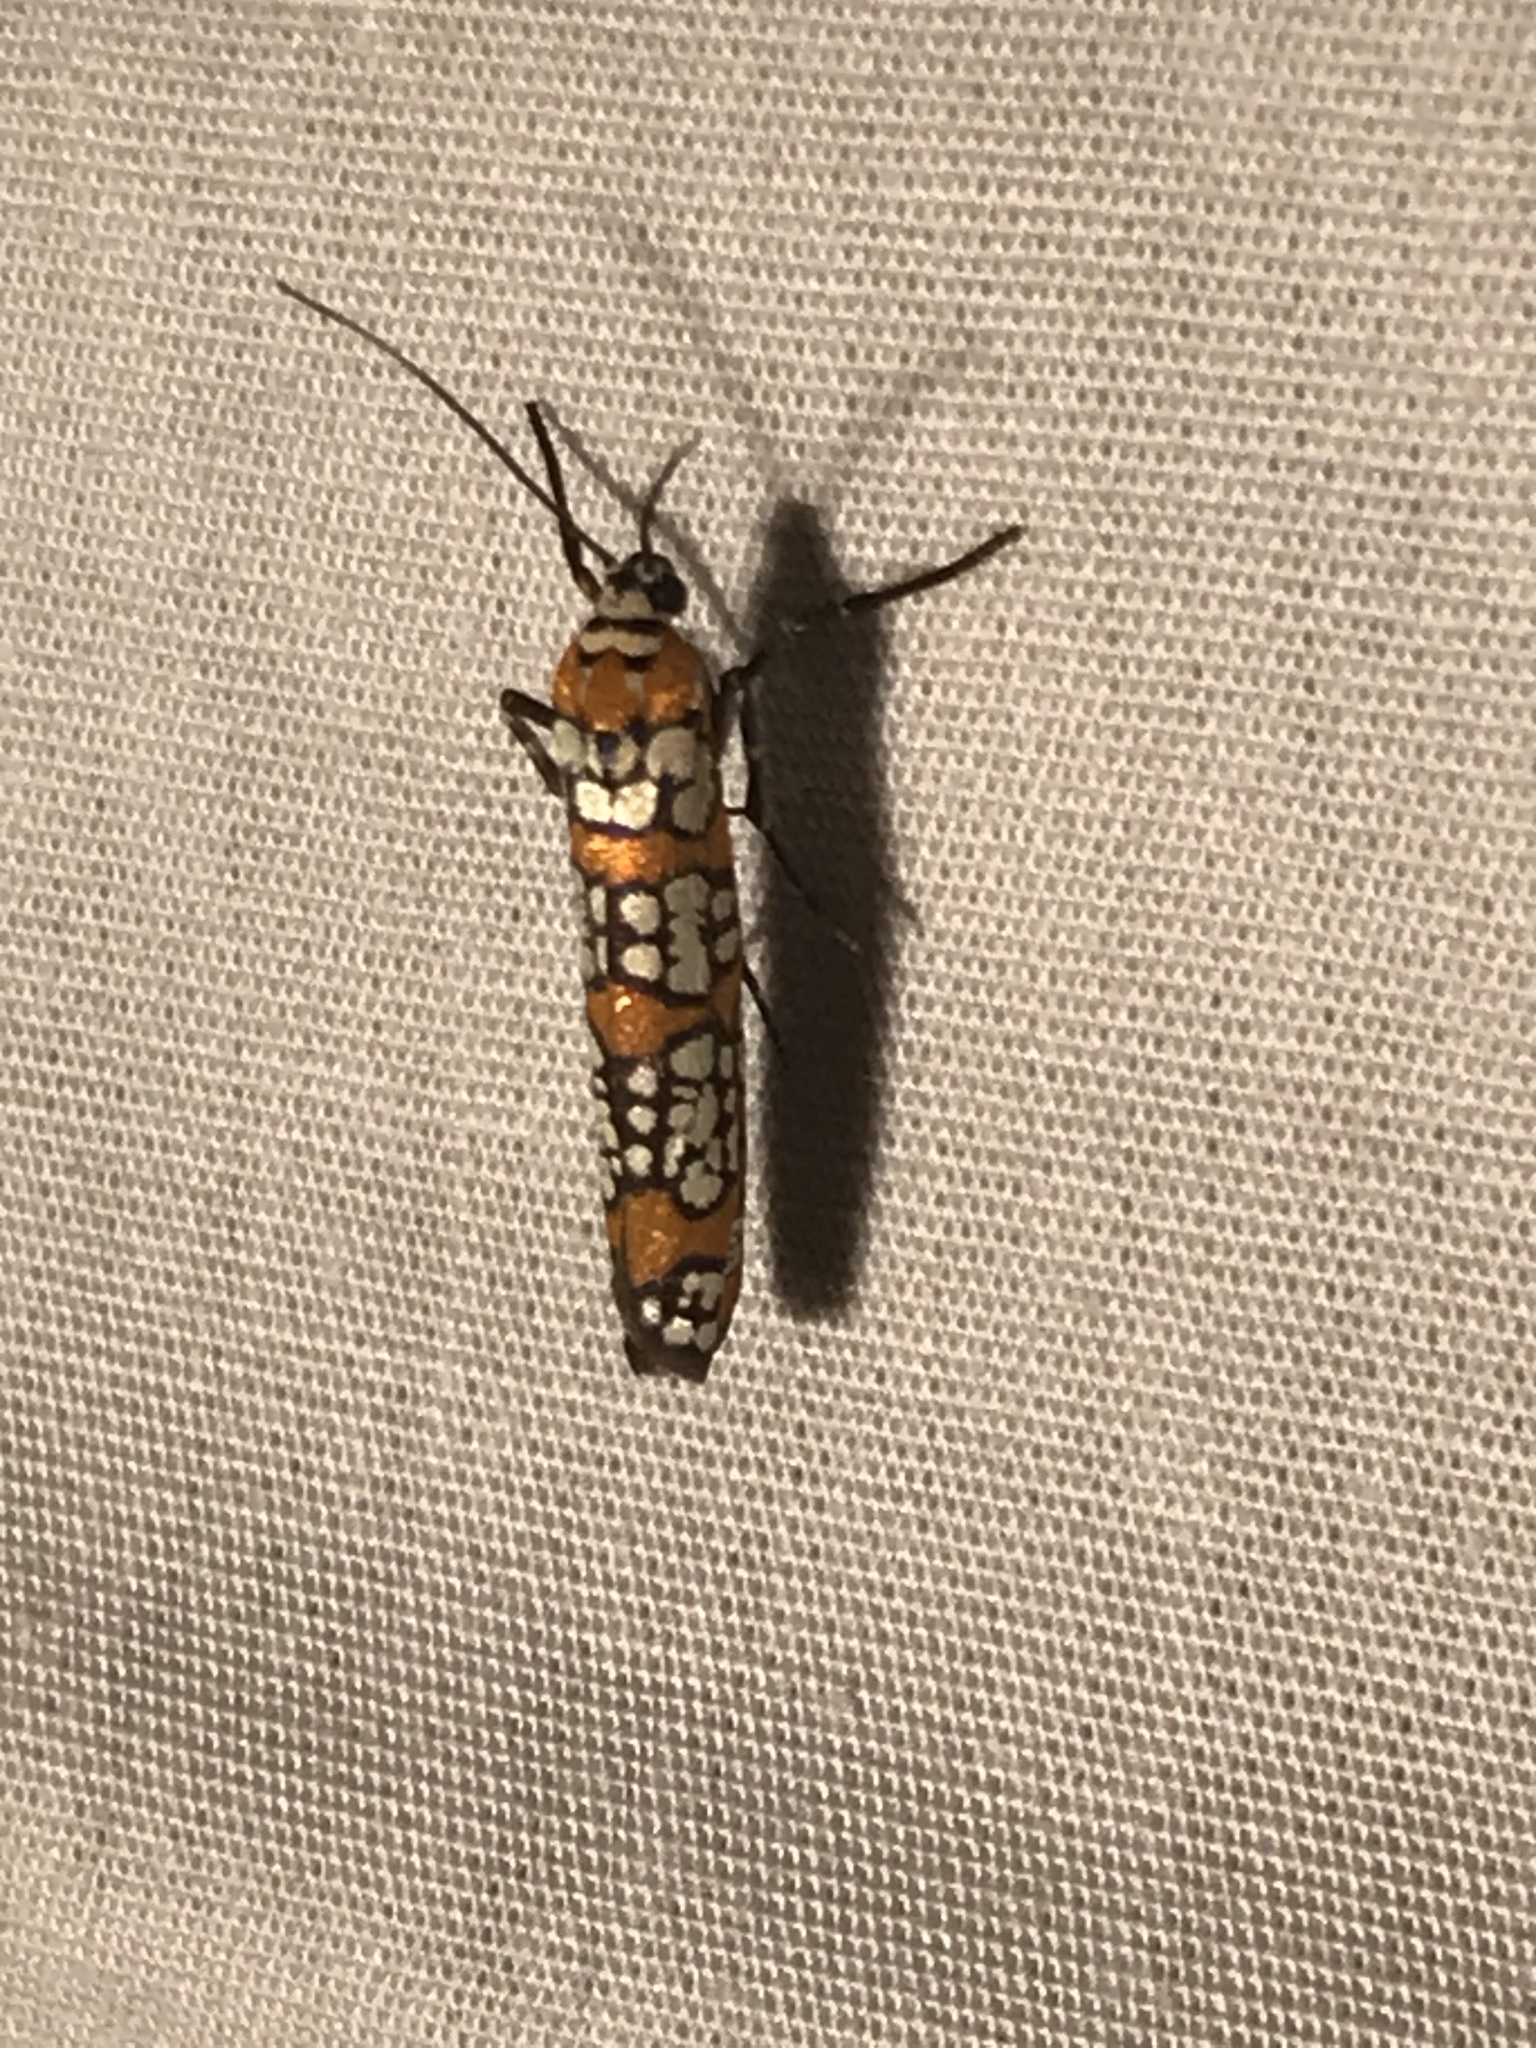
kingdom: Animalia
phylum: Arthropoda
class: Insecta
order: Lepidoptera
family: Attevidae
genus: Atteva
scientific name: Atteva punctella
